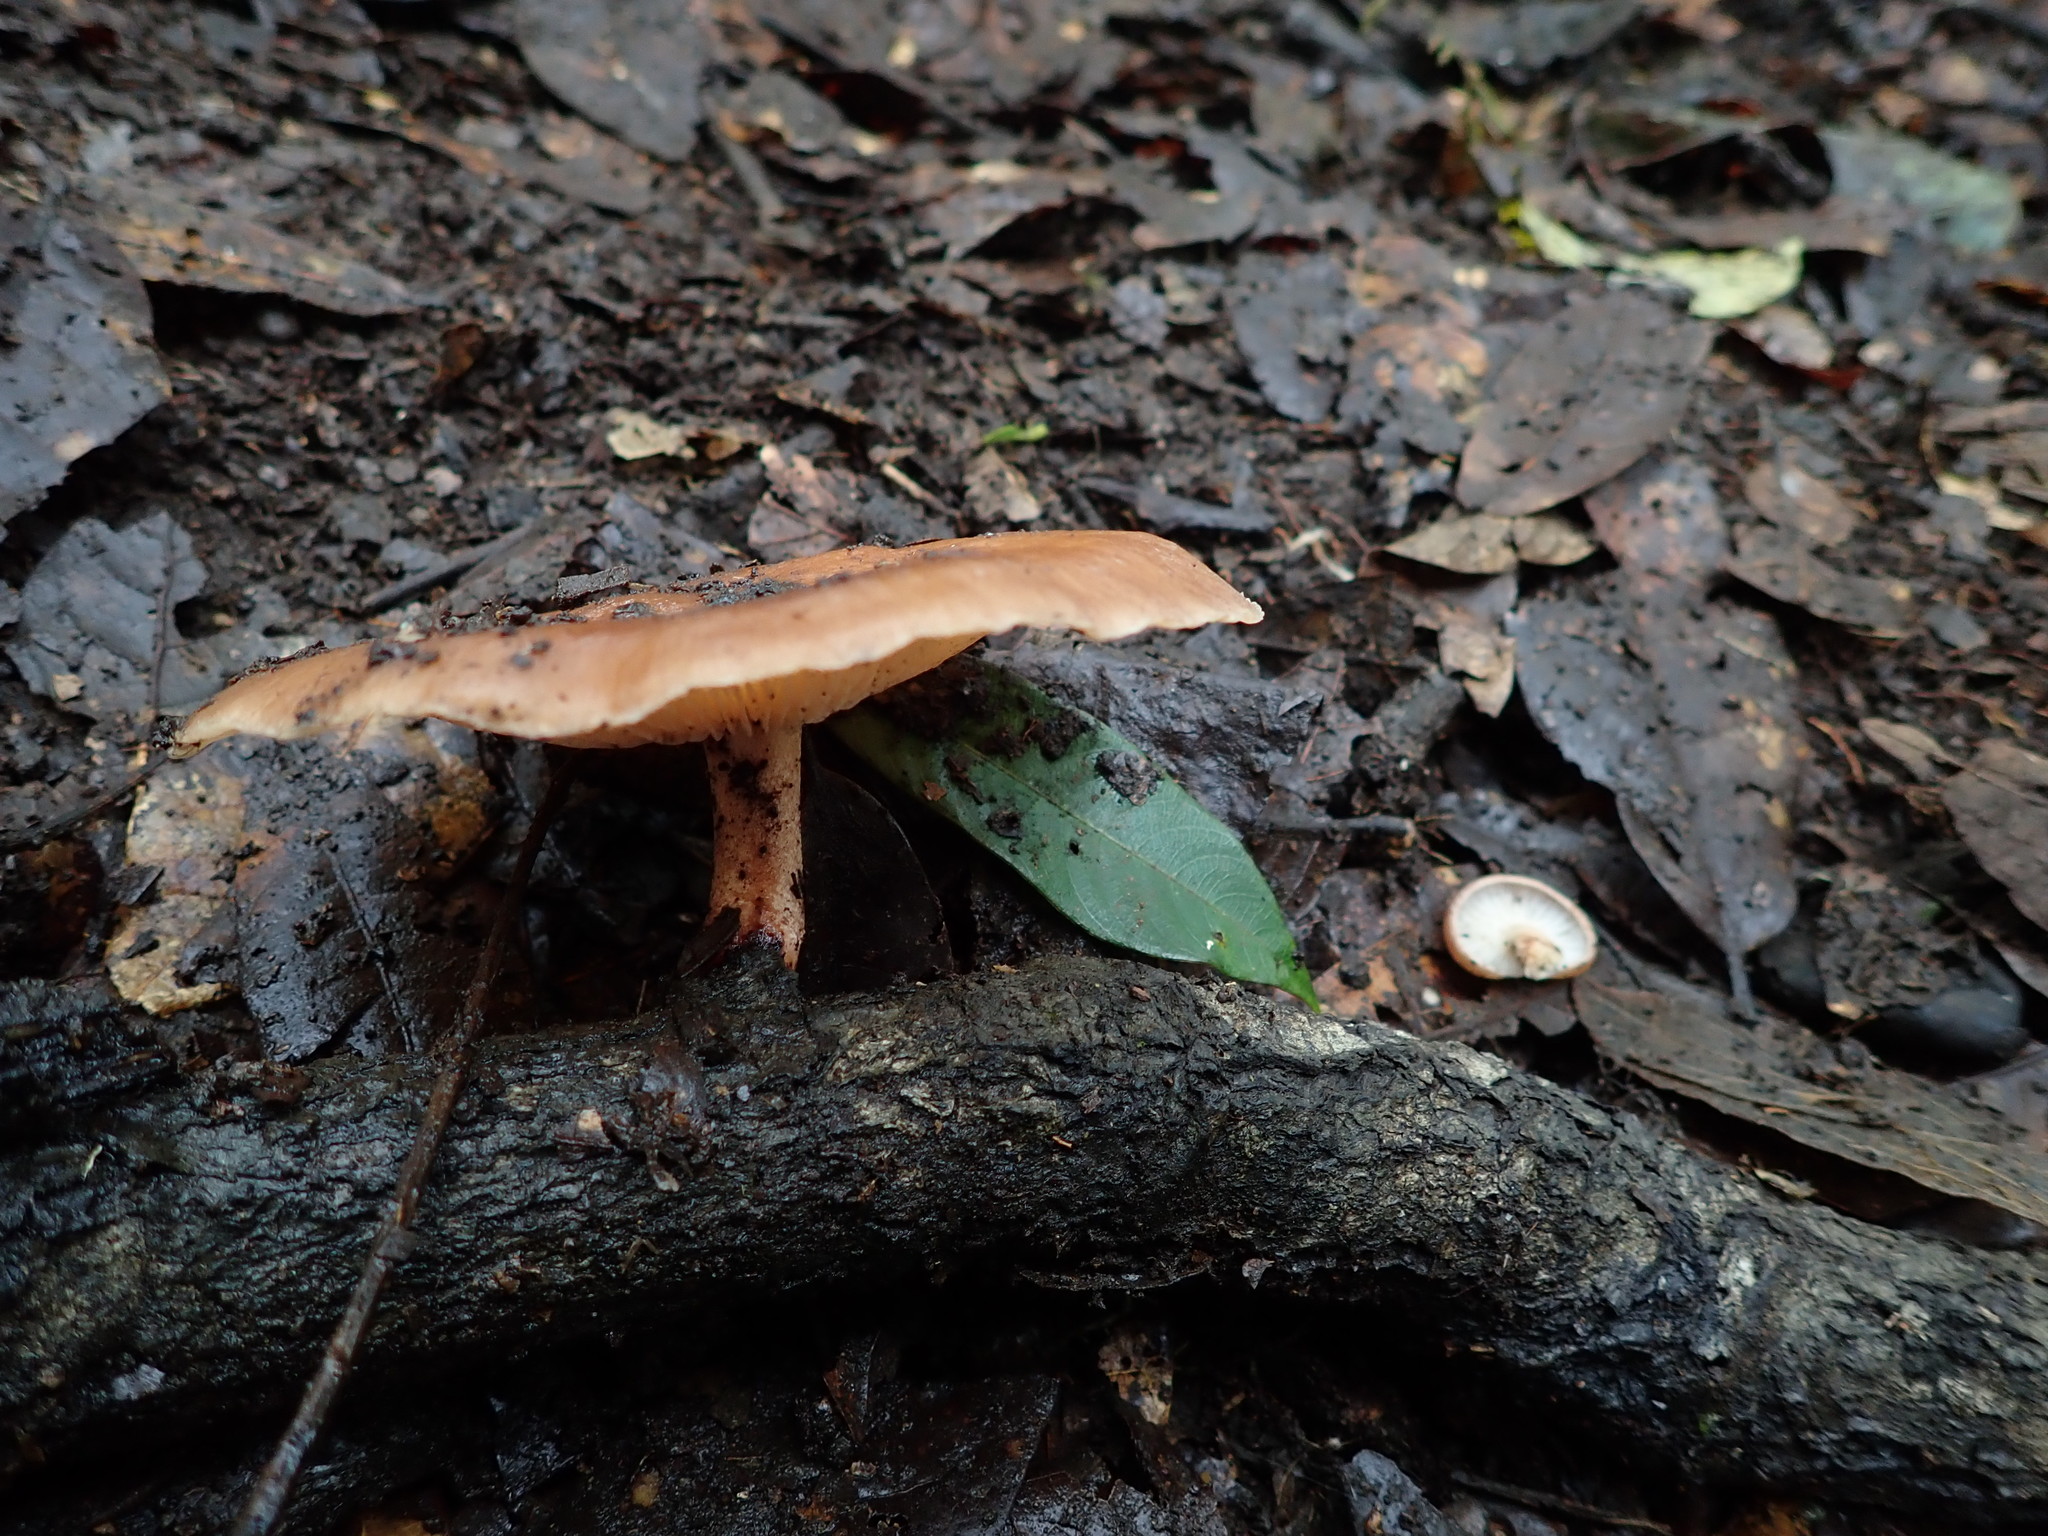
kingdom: Fungi
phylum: Basidiomycota
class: Agaricomycetes
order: Agaricales
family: Omphalotaceae
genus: Lentinula
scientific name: Lentinula boryana
